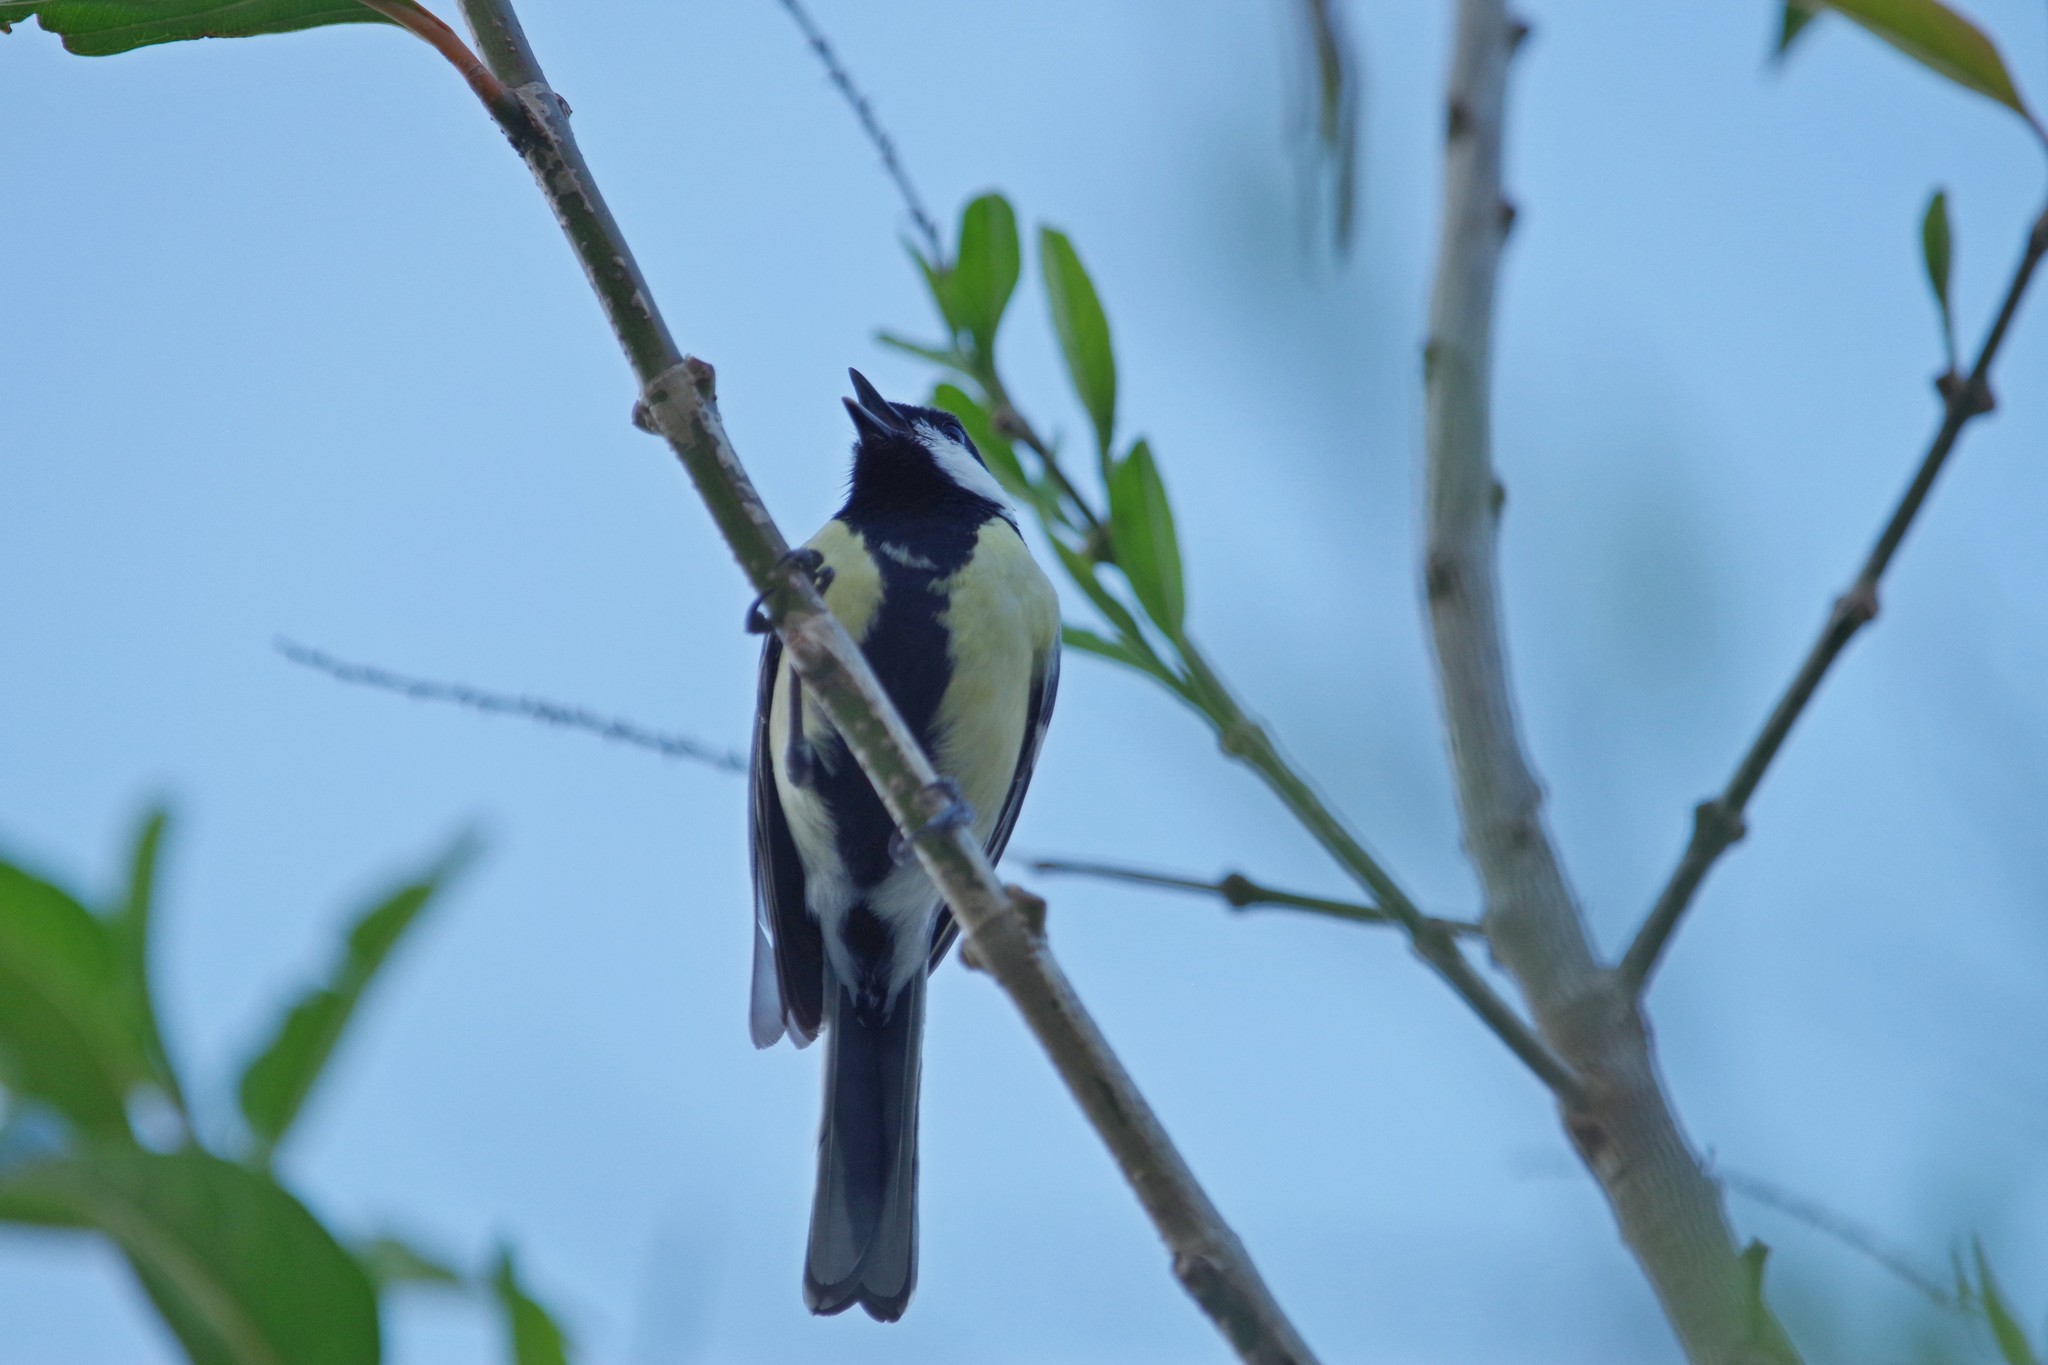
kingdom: Animalia
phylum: Chordata
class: Aves
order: Passeriformes
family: Paridae
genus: Parus
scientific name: Parus major
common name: Great tit
